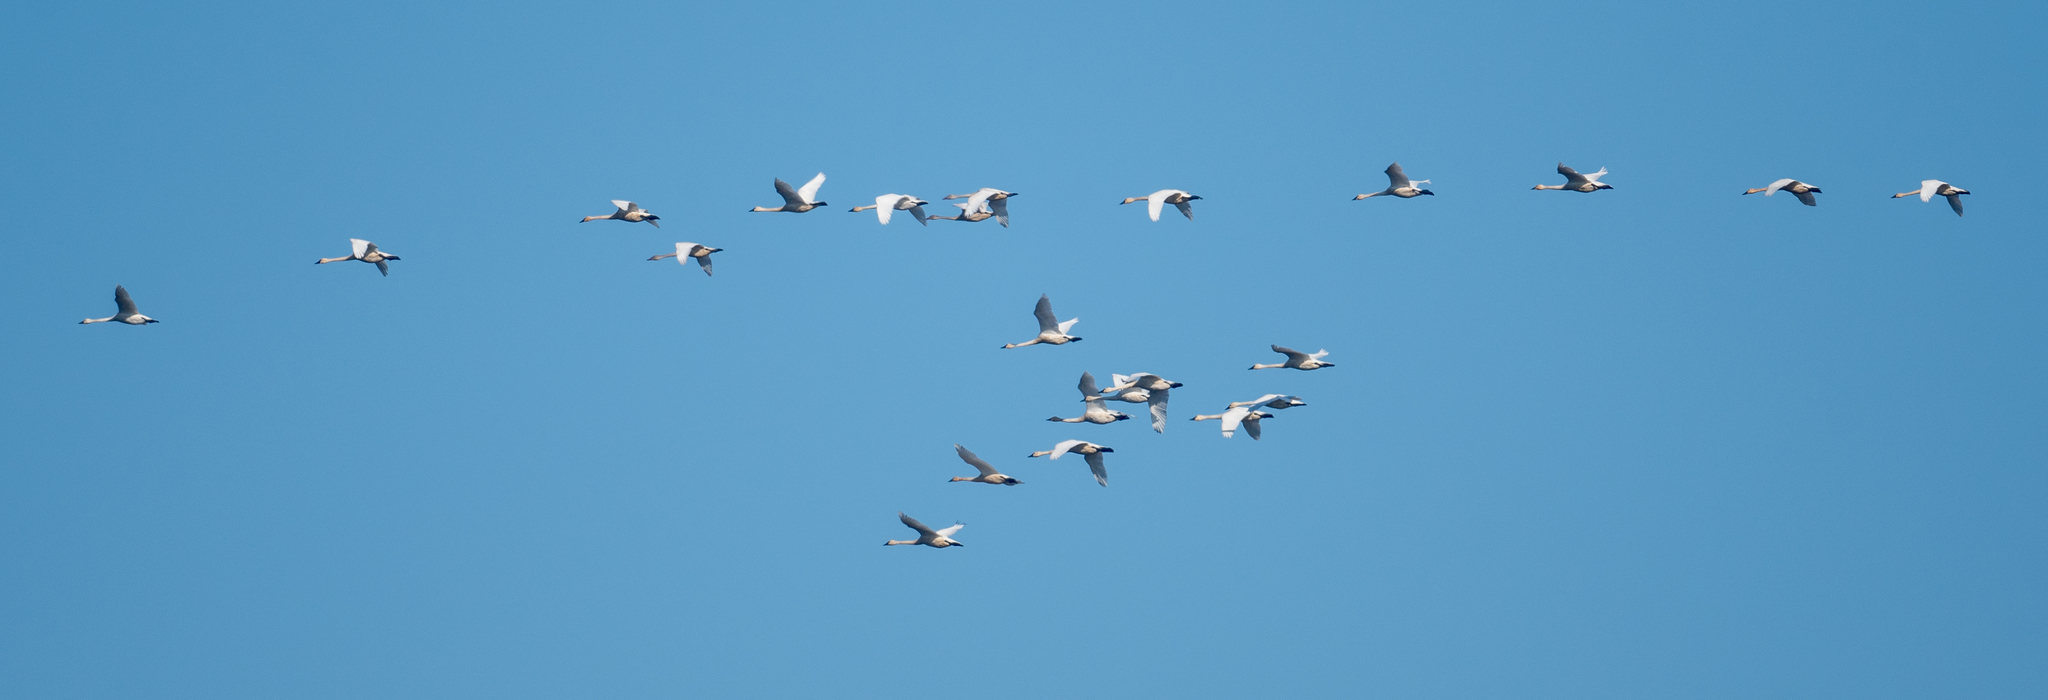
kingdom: Animalia
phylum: Chordata
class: Aves
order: Anseriformes
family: Anatidae
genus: Cygnus
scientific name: Cygnus columbianus
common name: Tundra swan
